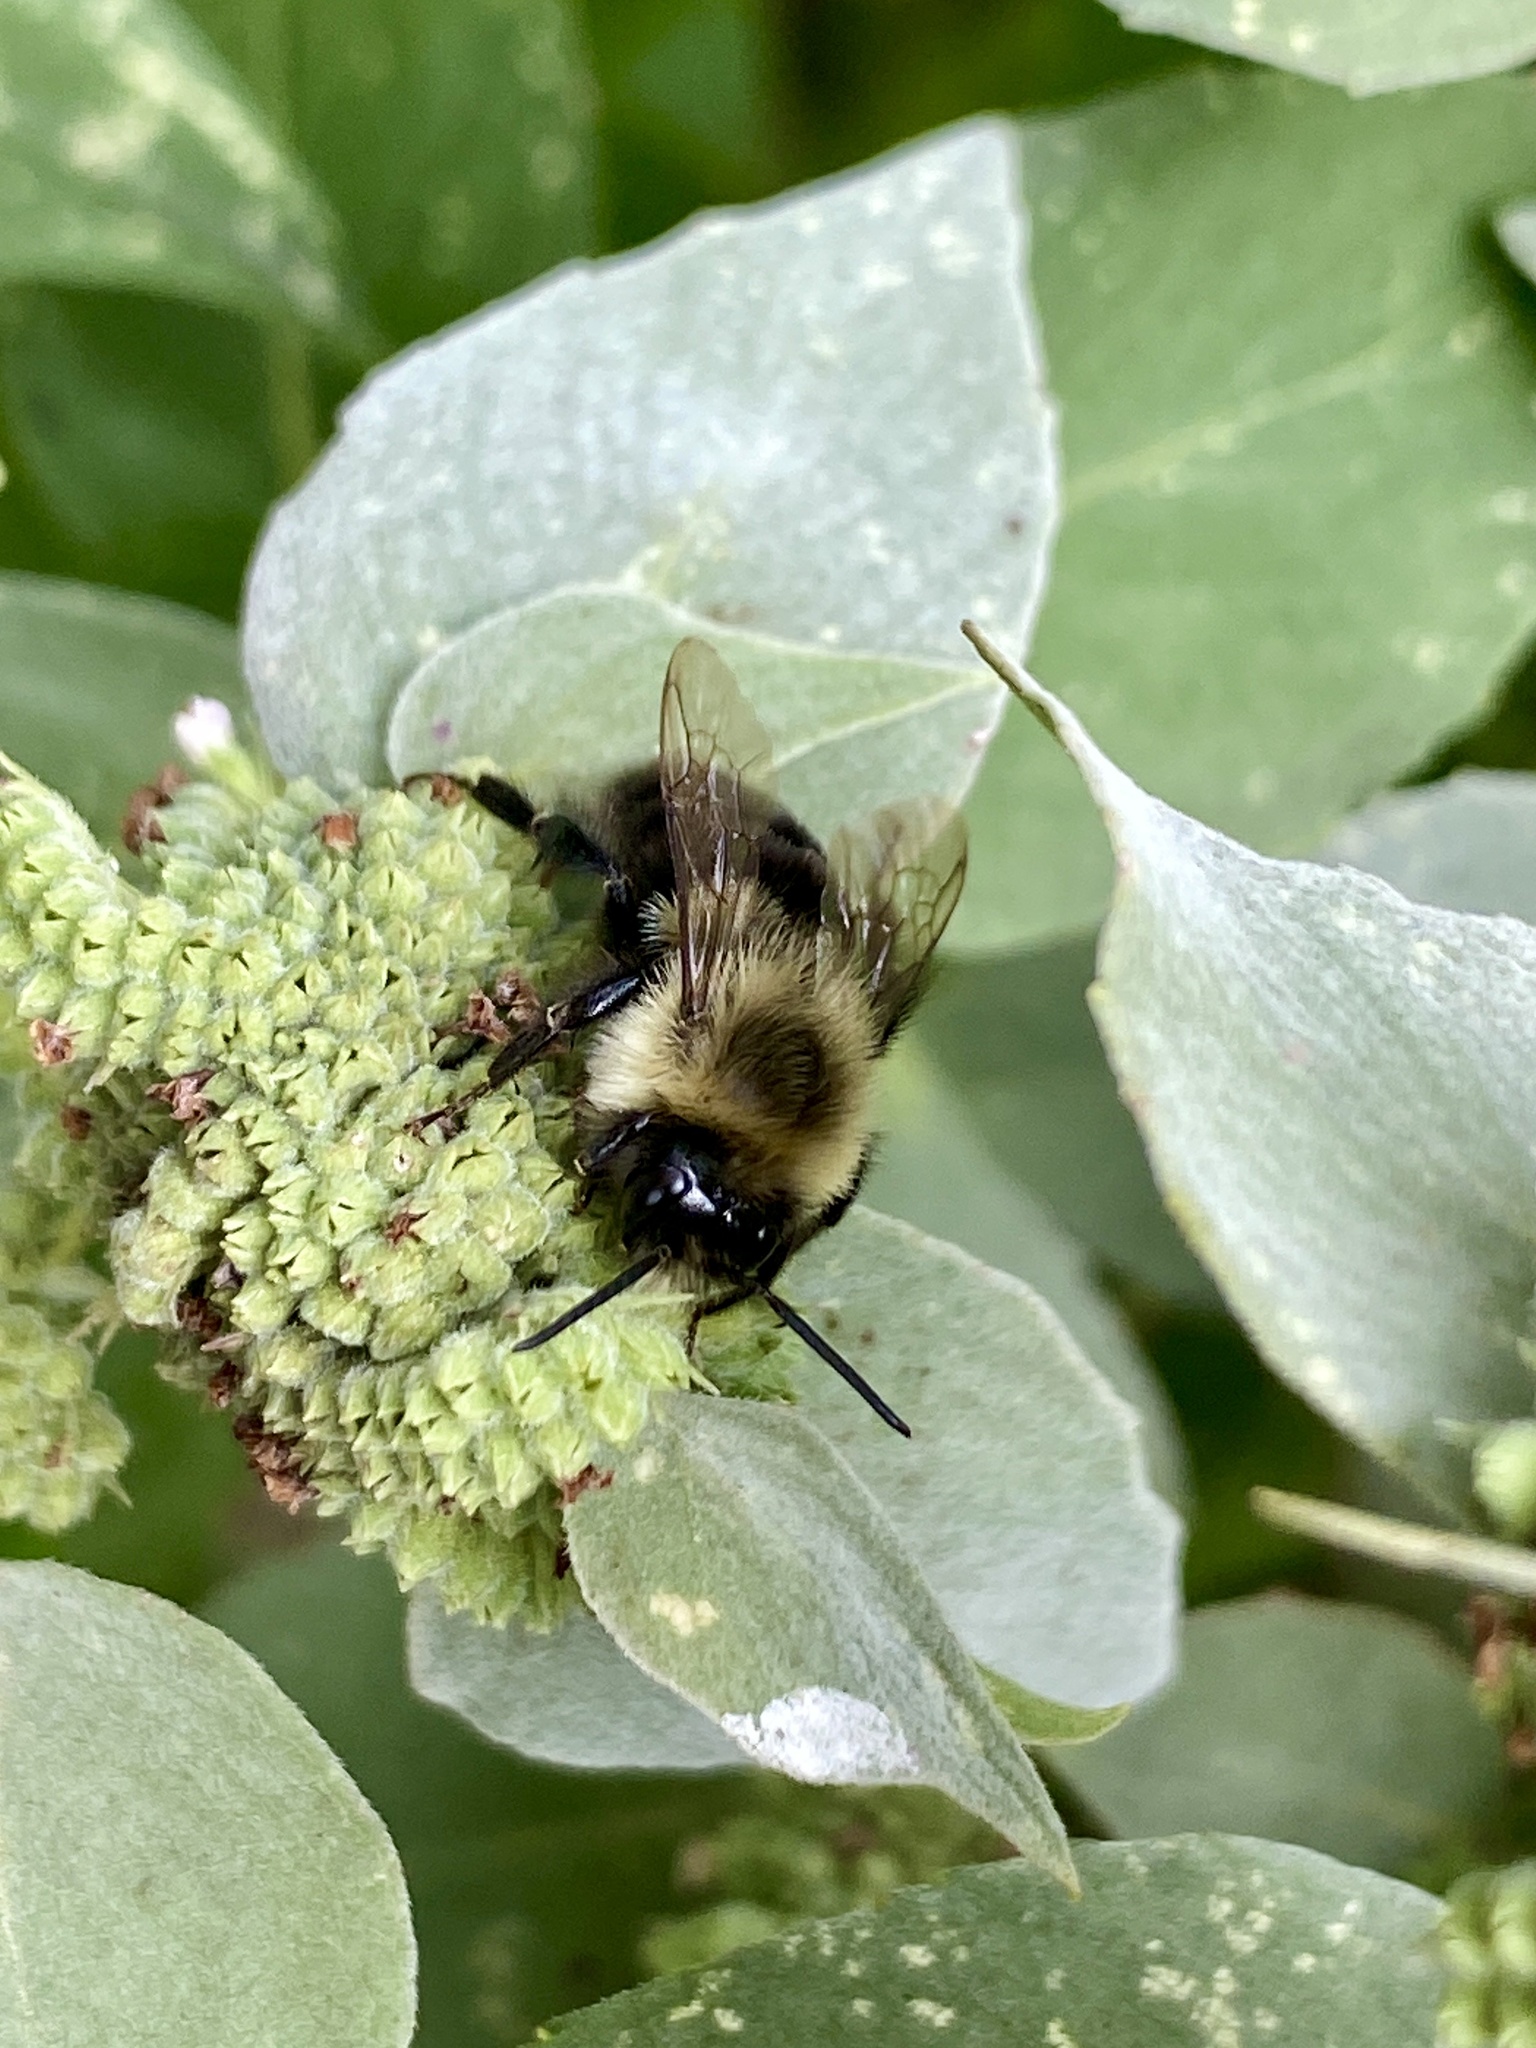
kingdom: Animalia
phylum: Arthropoda
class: Insecta
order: Hymenoptera
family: Apidae
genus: Bombus
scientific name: Bombus impatiens
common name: Common eastern bumble bee
